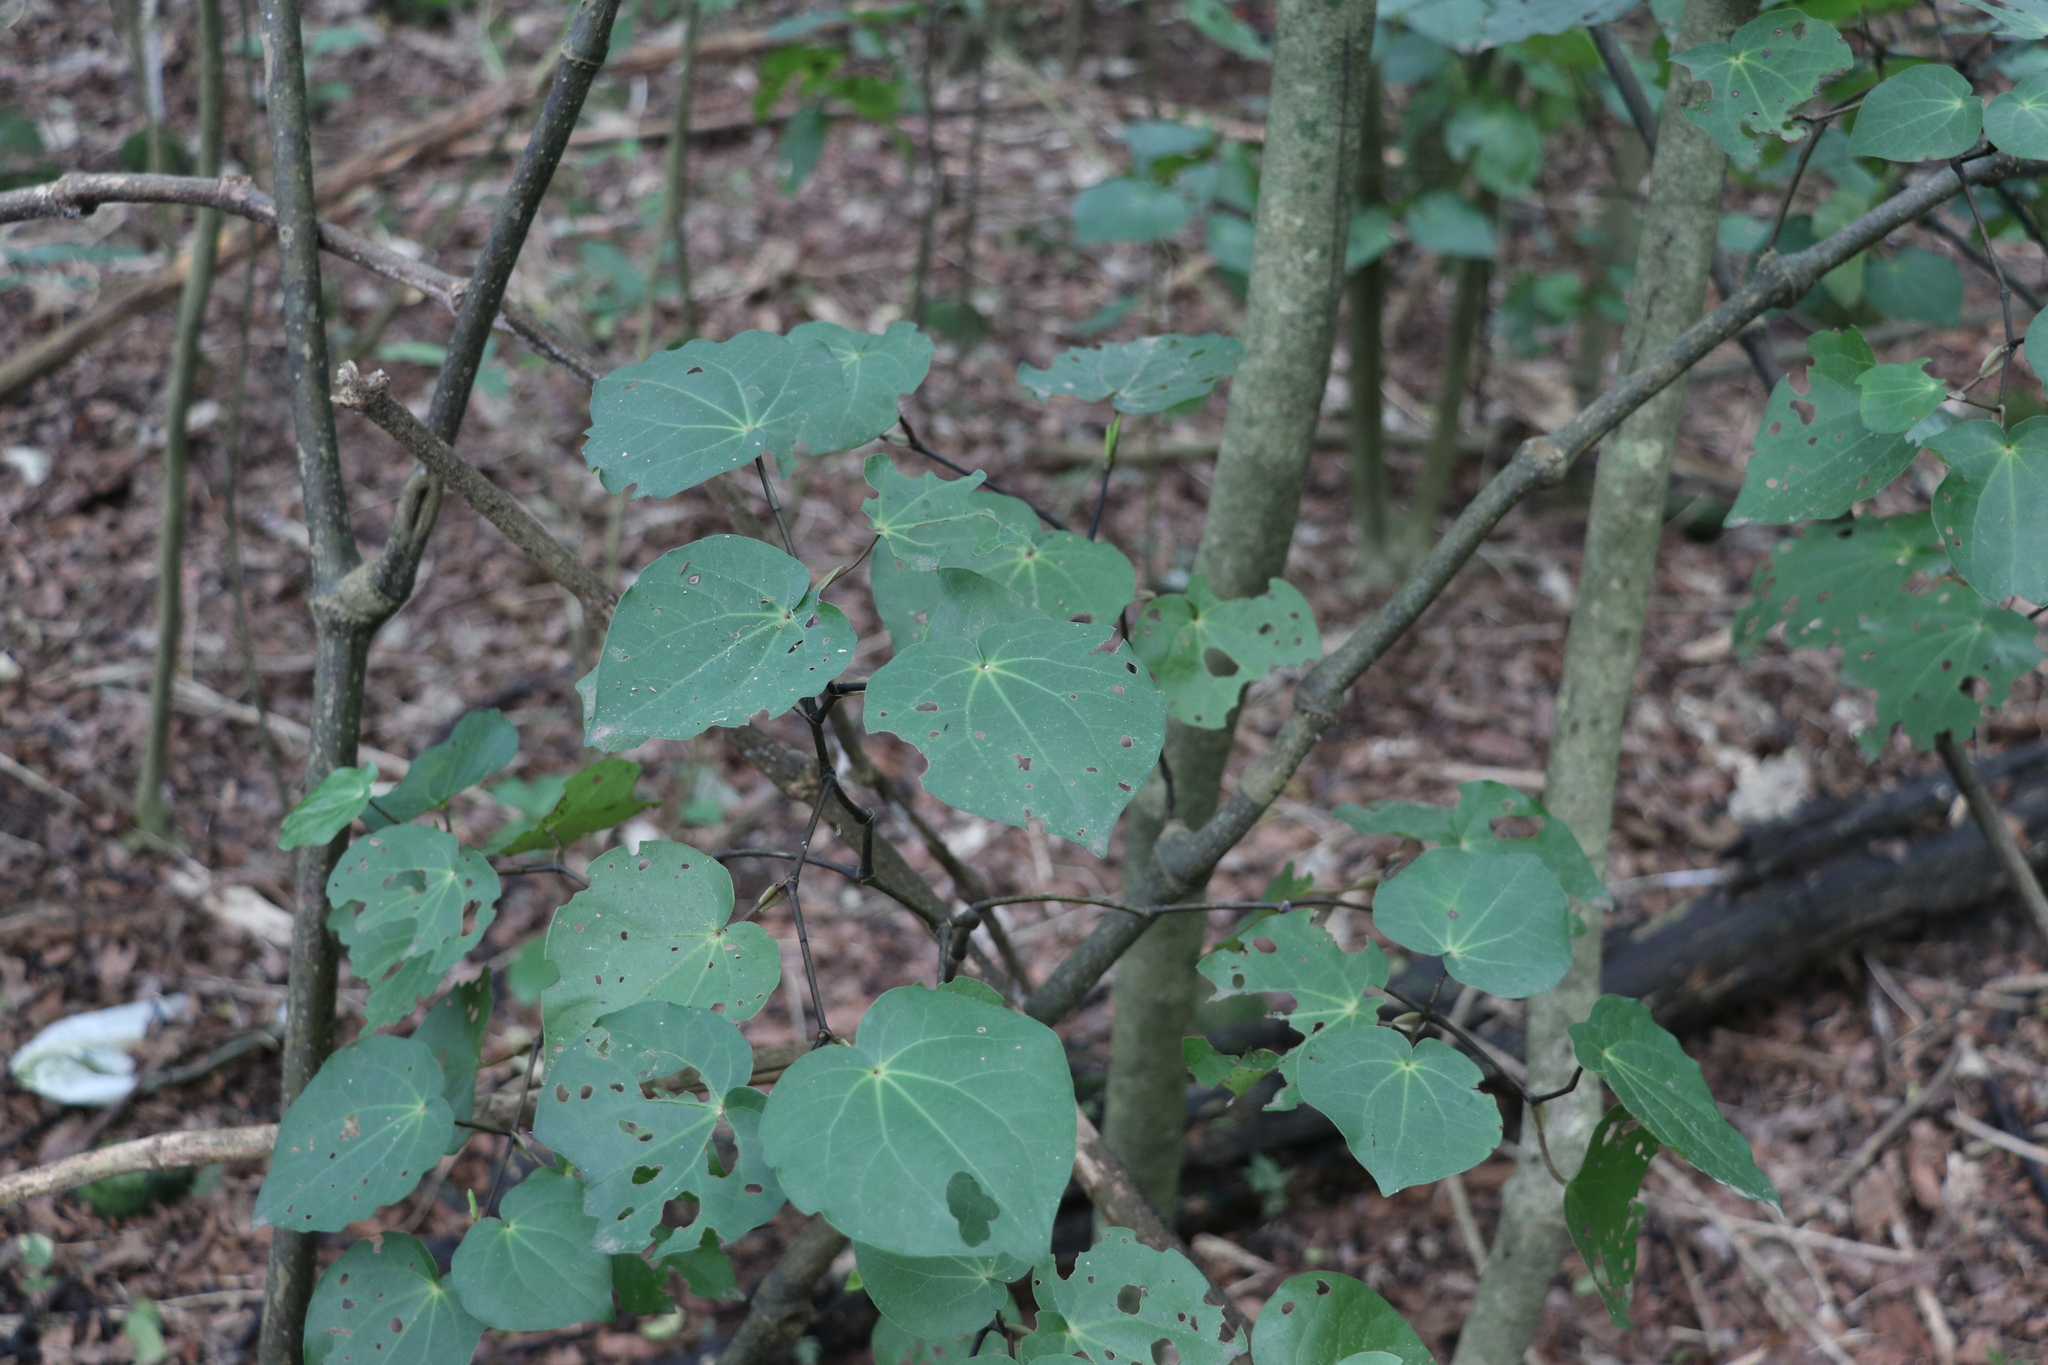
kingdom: Plantae
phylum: Tracheophyta
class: Magnoliopsida
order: Piperales
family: Piperaceae
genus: Macropiper
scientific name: Macropiper excelsum
